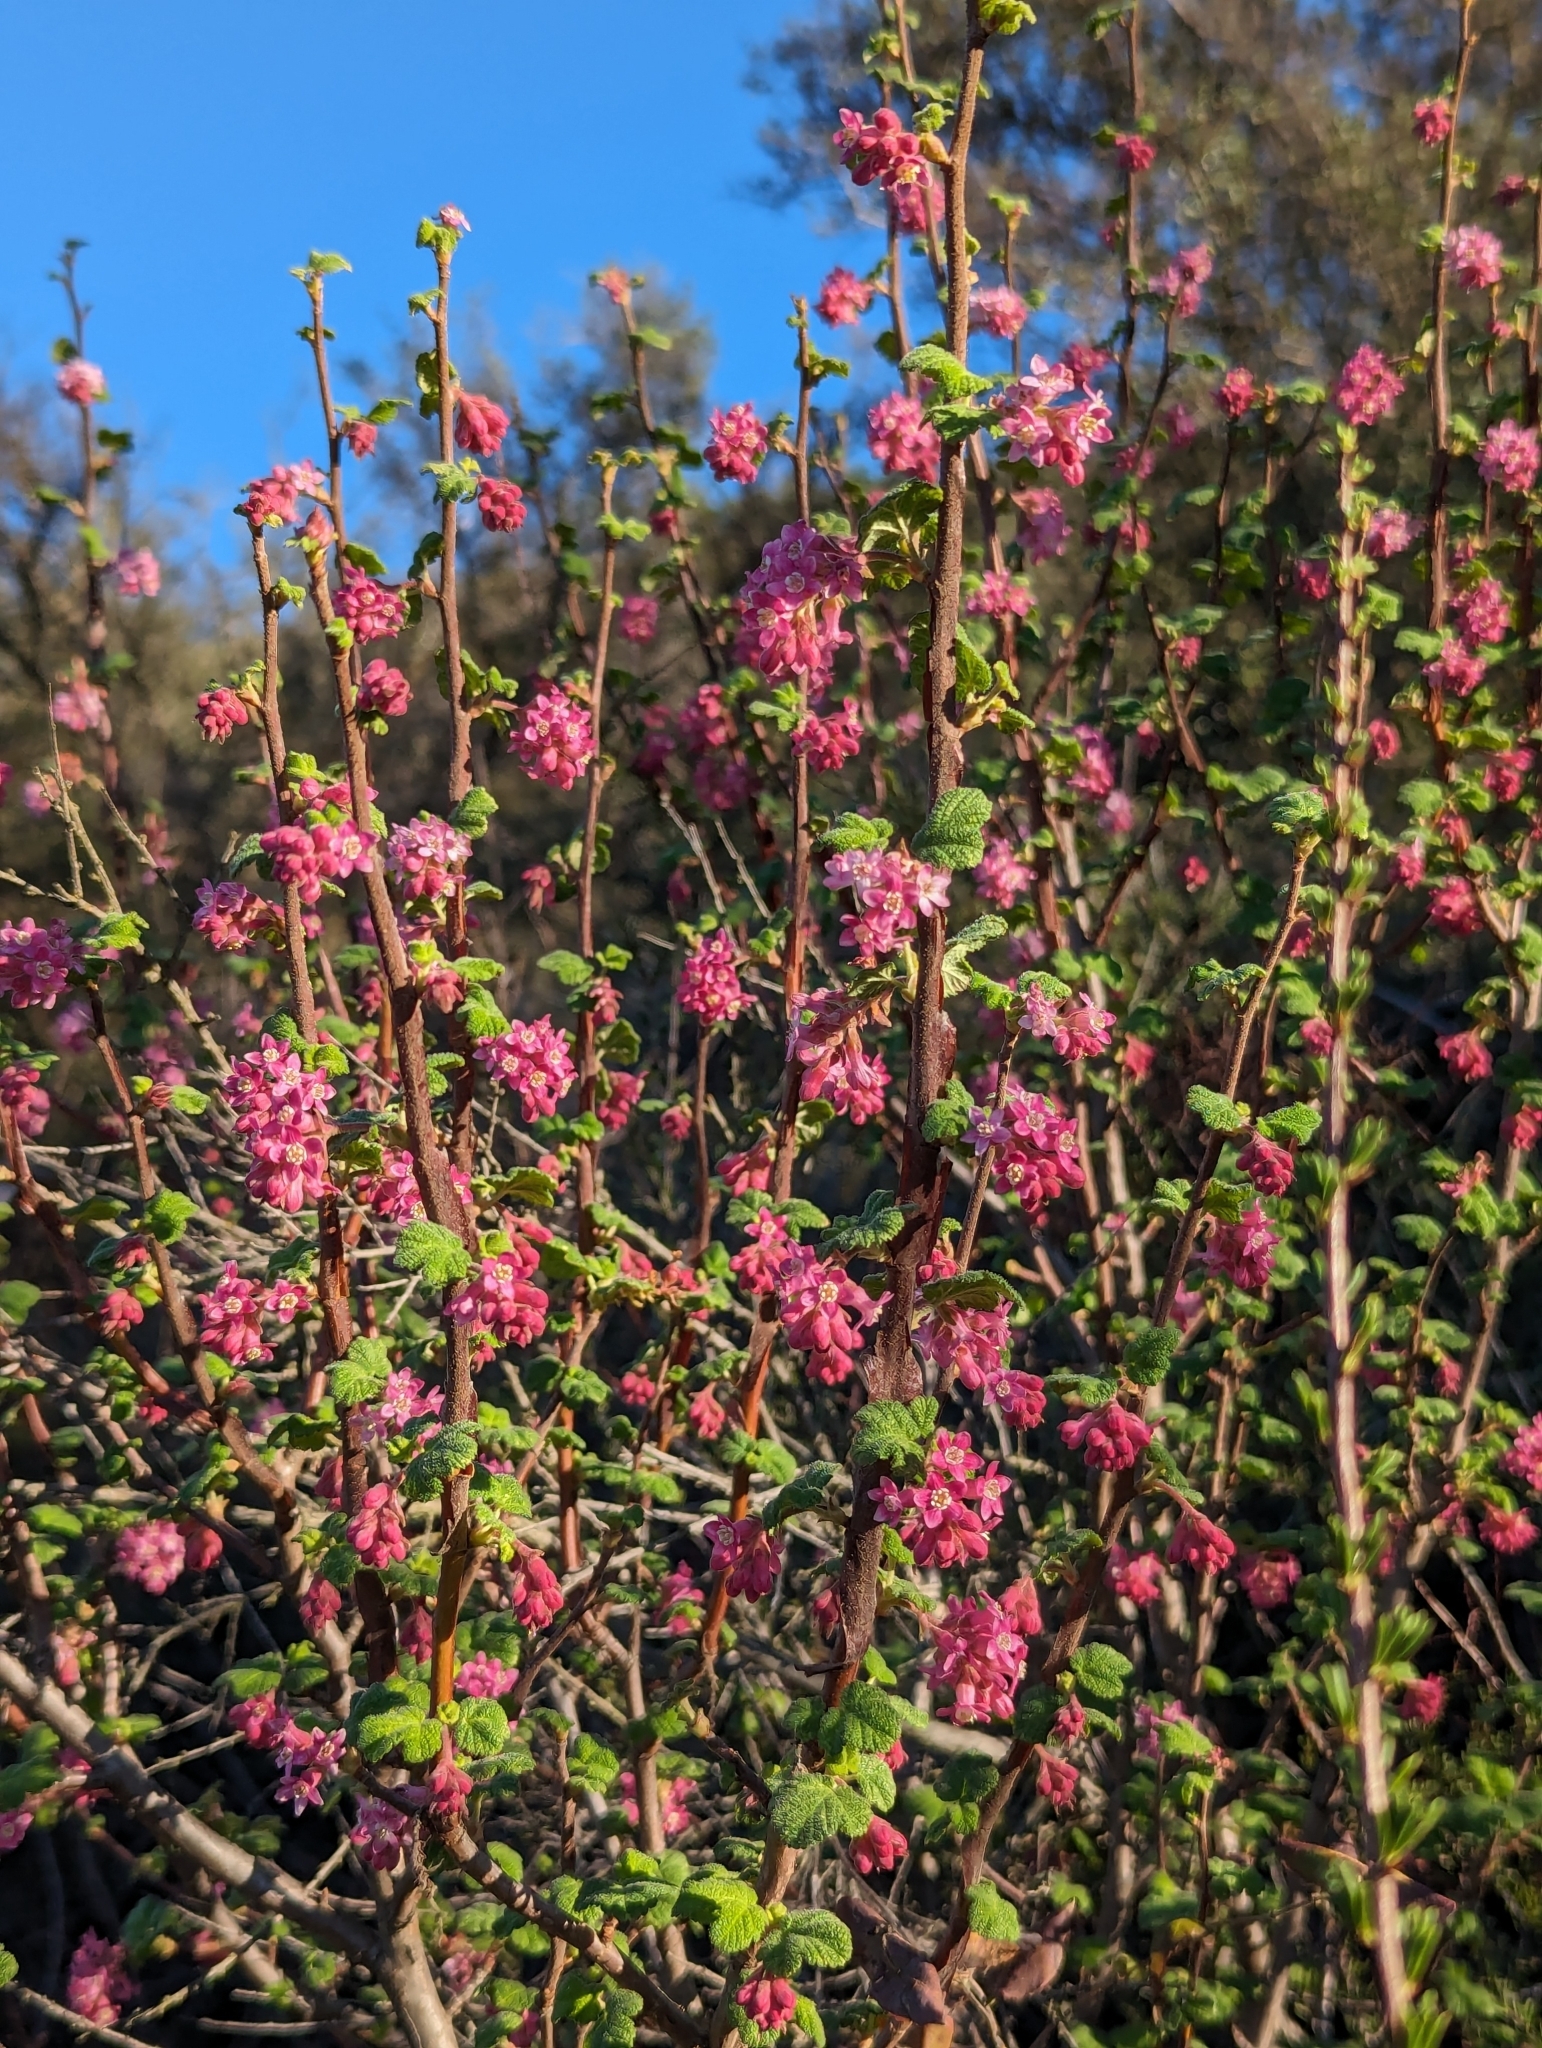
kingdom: Plantae
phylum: Tracheophyta
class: Magnoliopsida
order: Saxifragales
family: Grossulariaceae
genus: Ribes
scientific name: Ribes malvaceum
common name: Chaparral currant
